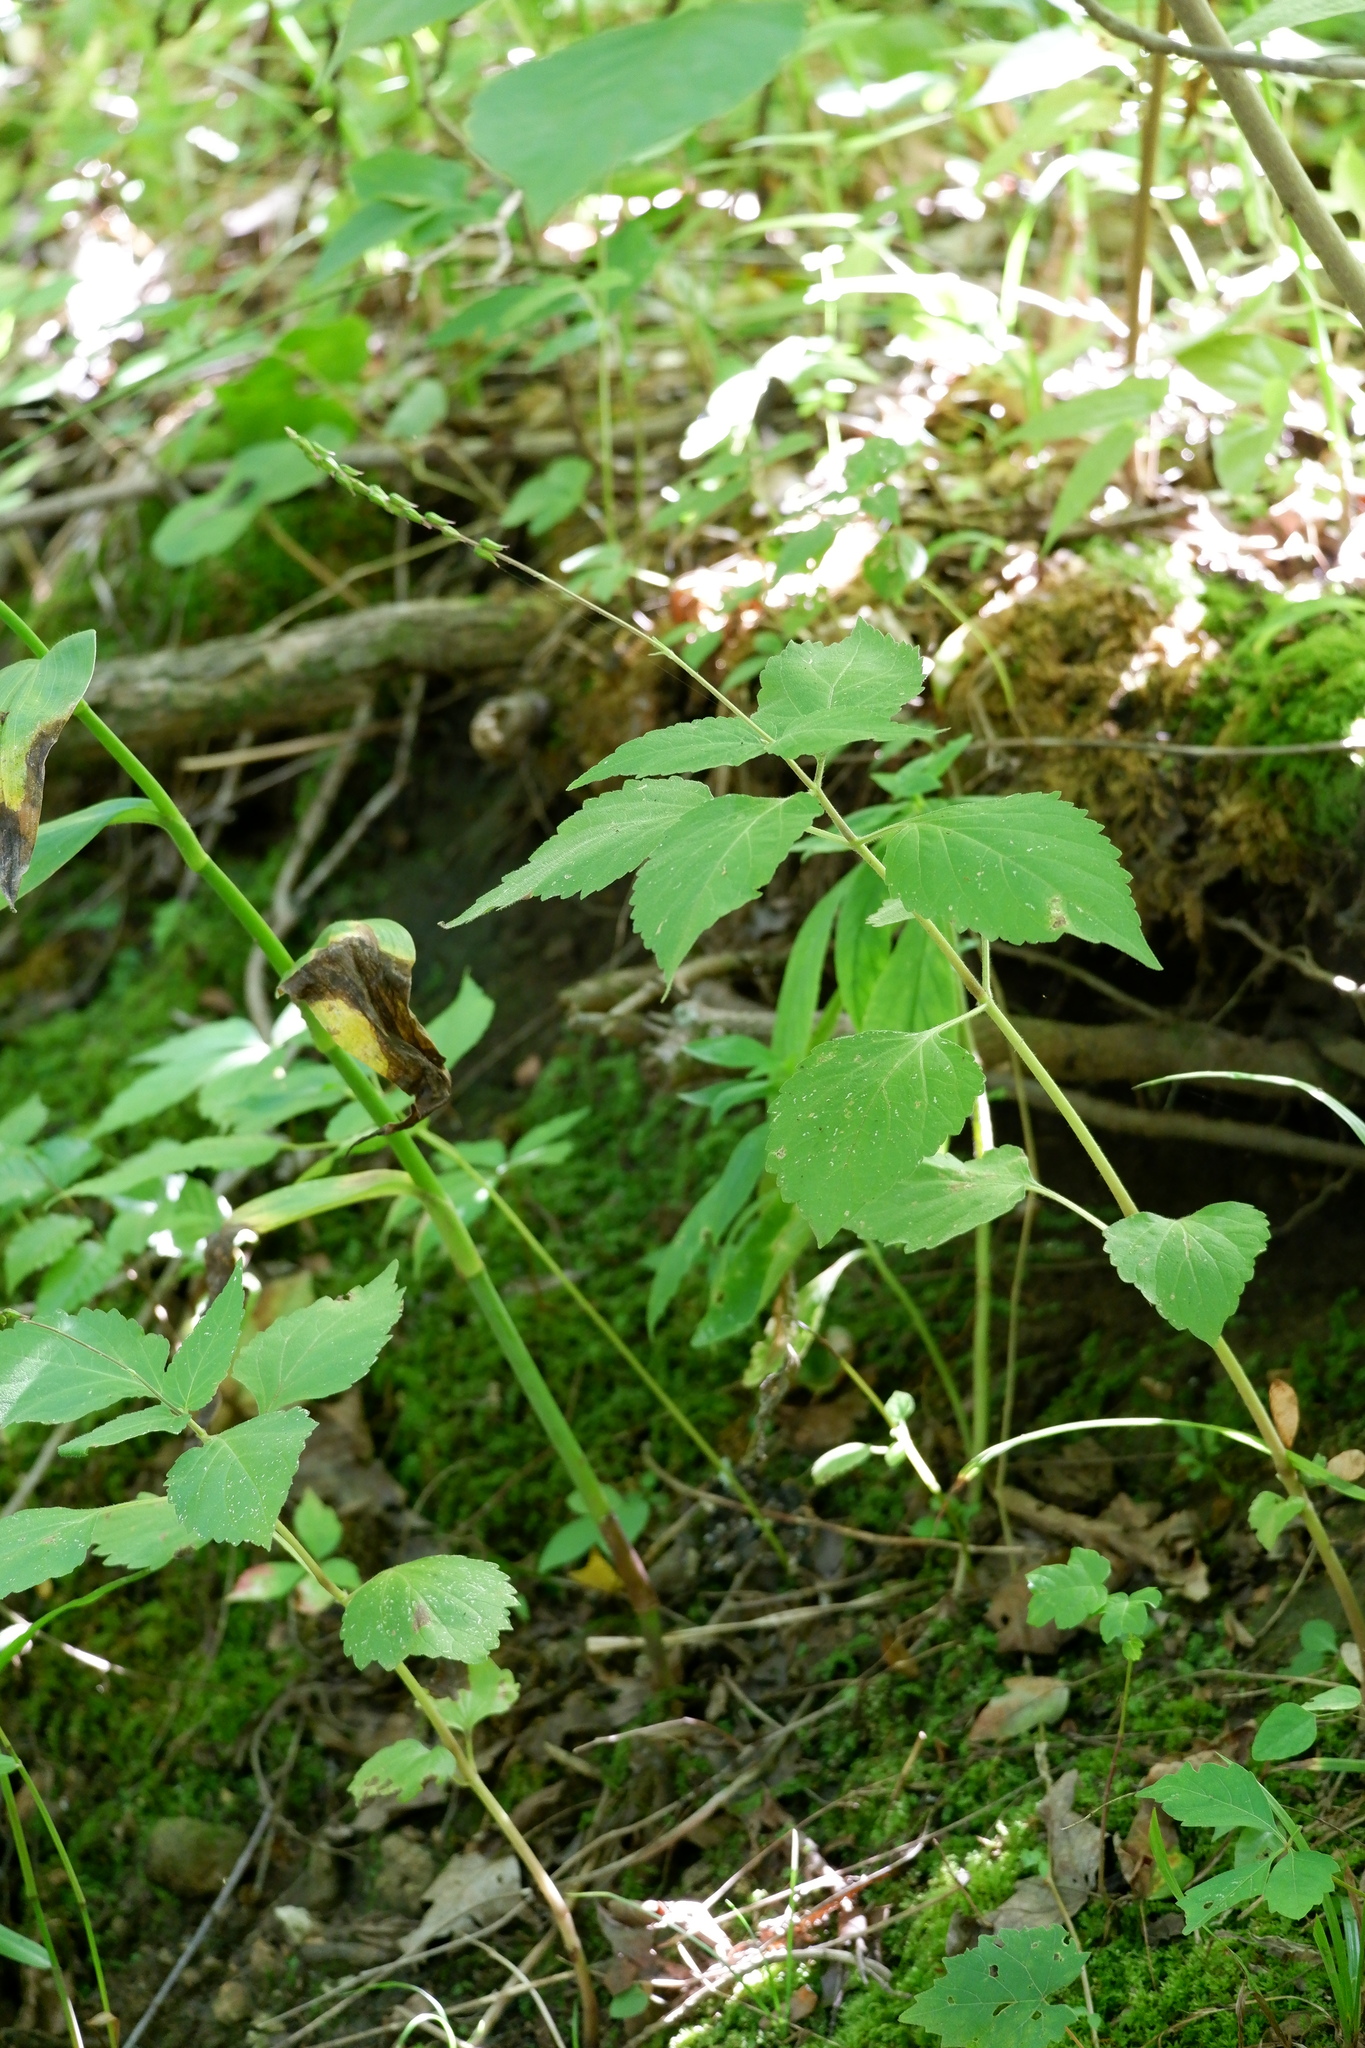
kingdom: Plantae
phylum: Tracheophyta
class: Magnoliopsida
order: Lamiales
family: Phrymaceae
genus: Phryma
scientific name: Phryma leptostachya
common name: American lopseed
